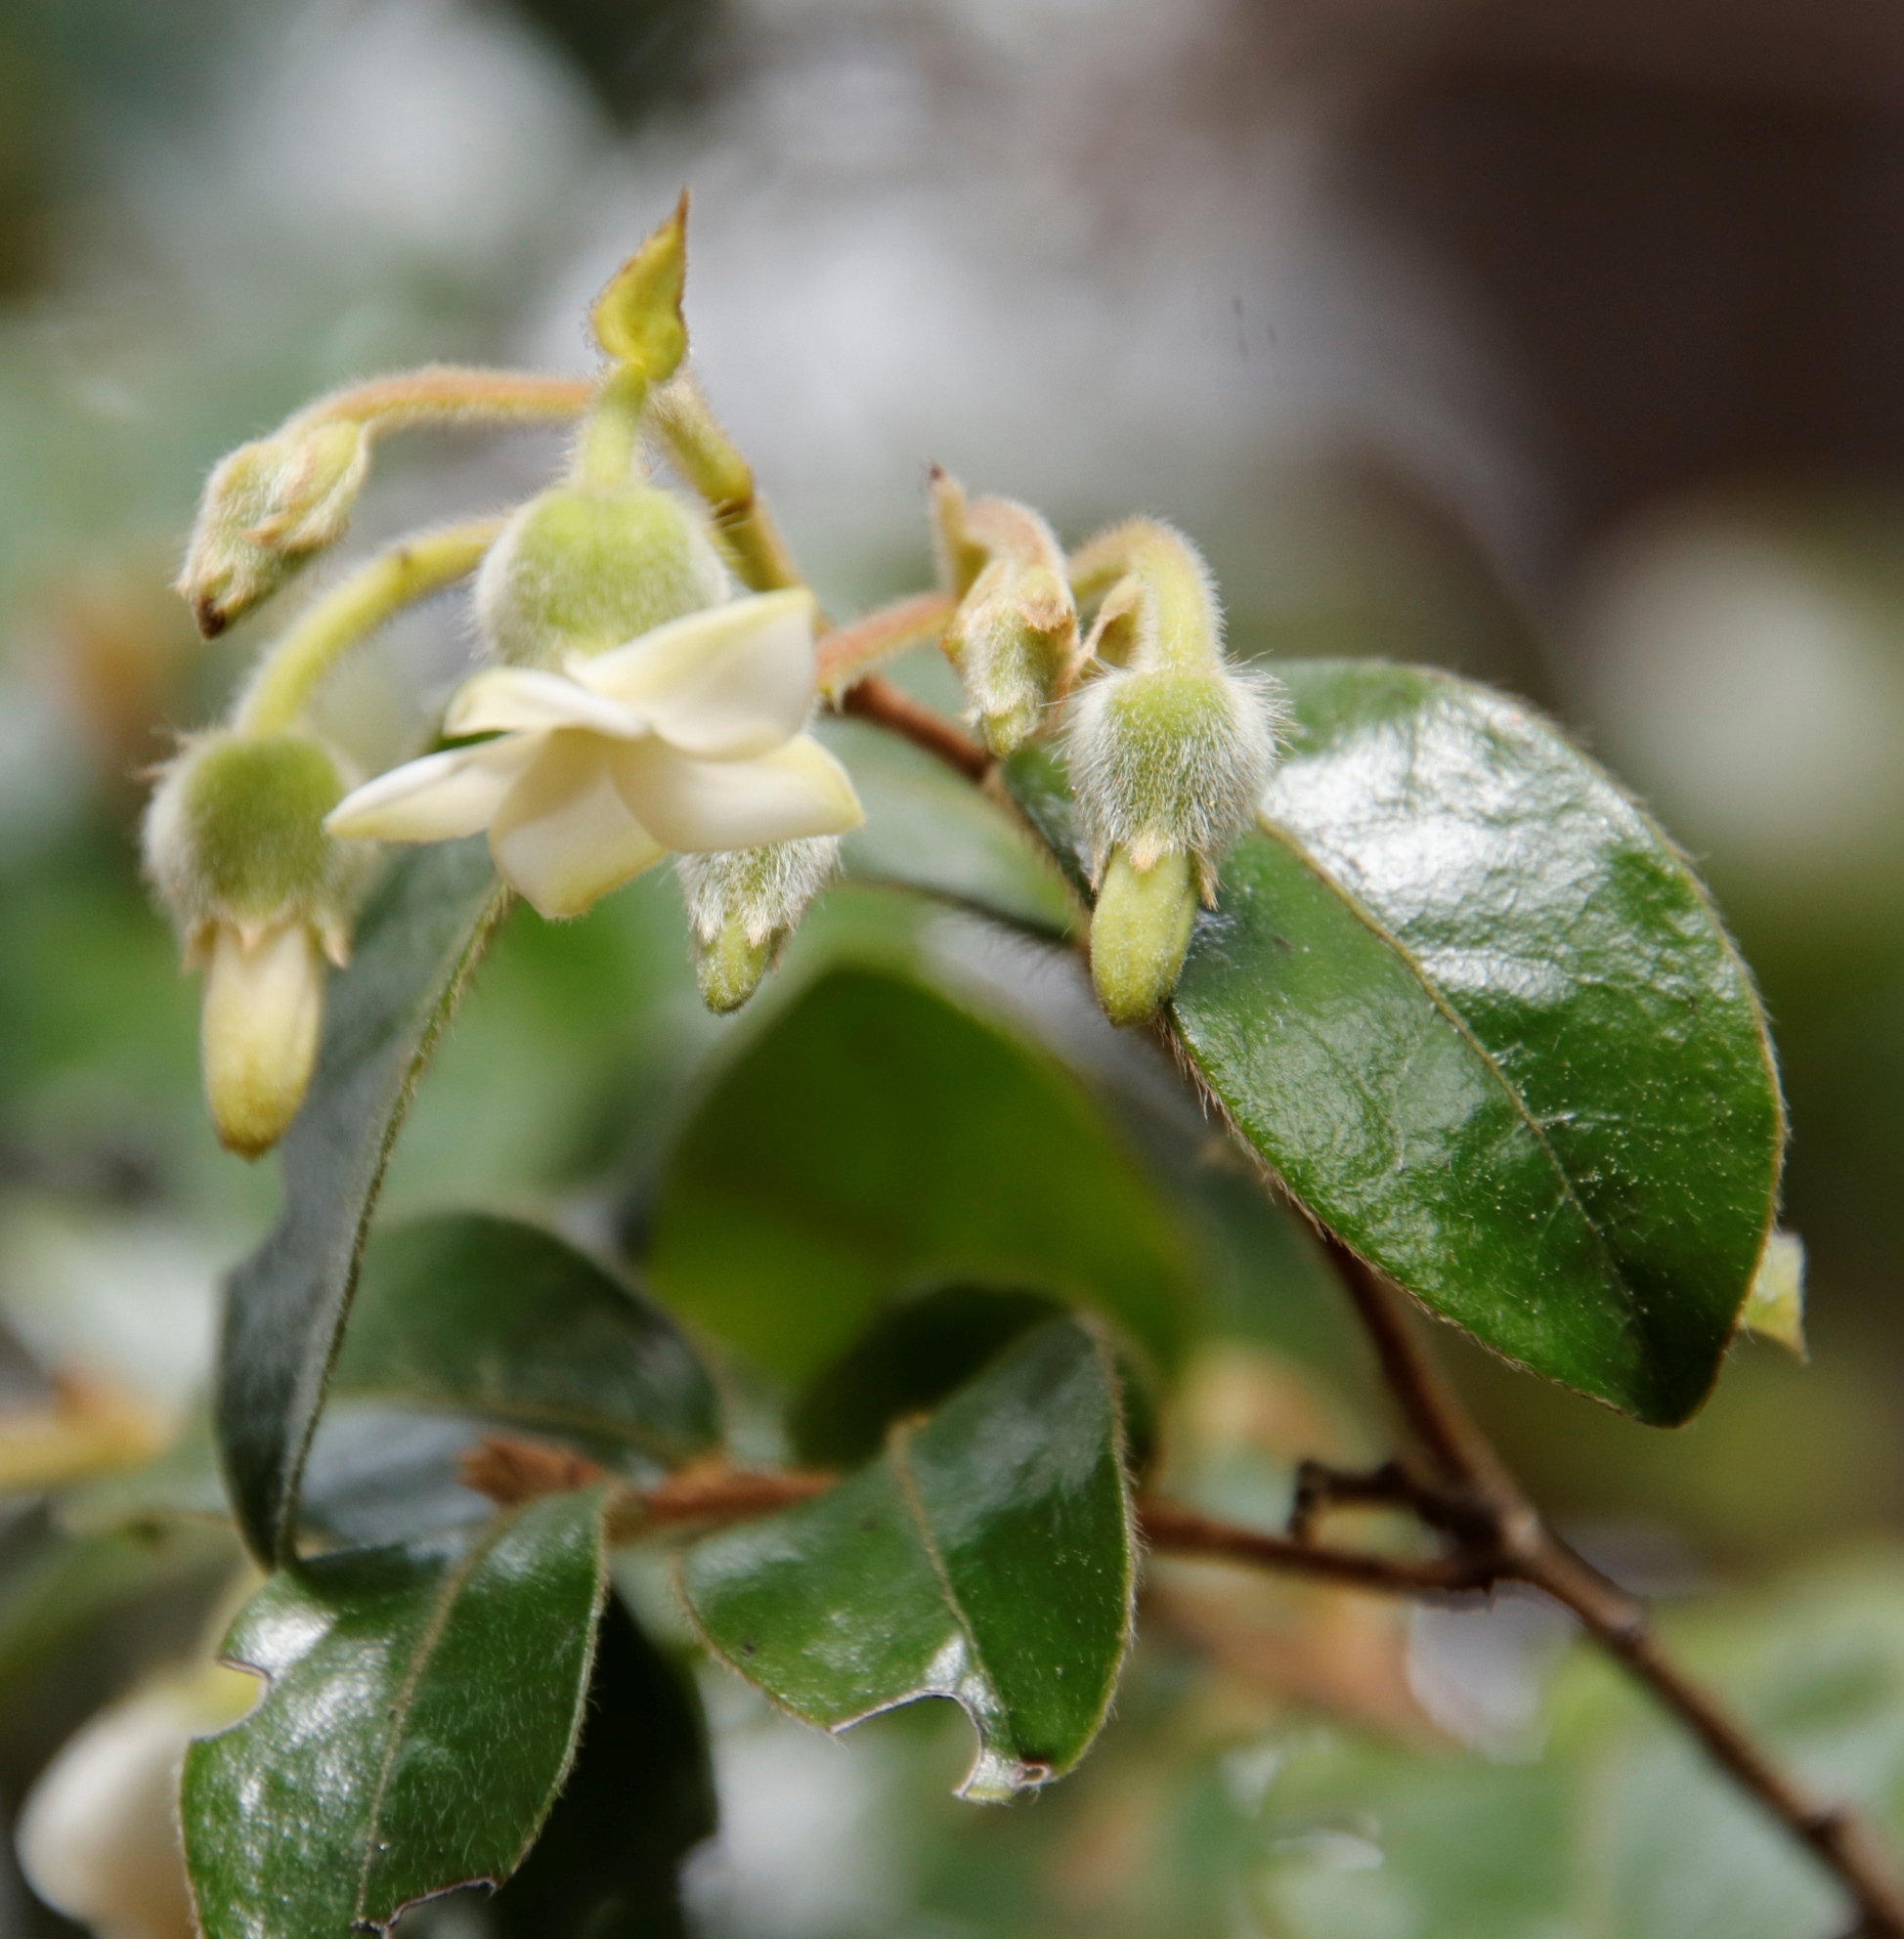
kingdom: Plantae
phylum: Tracheophyta
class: Magnoliopsida
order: Ericales
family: Ebenaceae
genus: Diospyros
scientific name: Diospyros whyteana
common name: Bladder-nut
